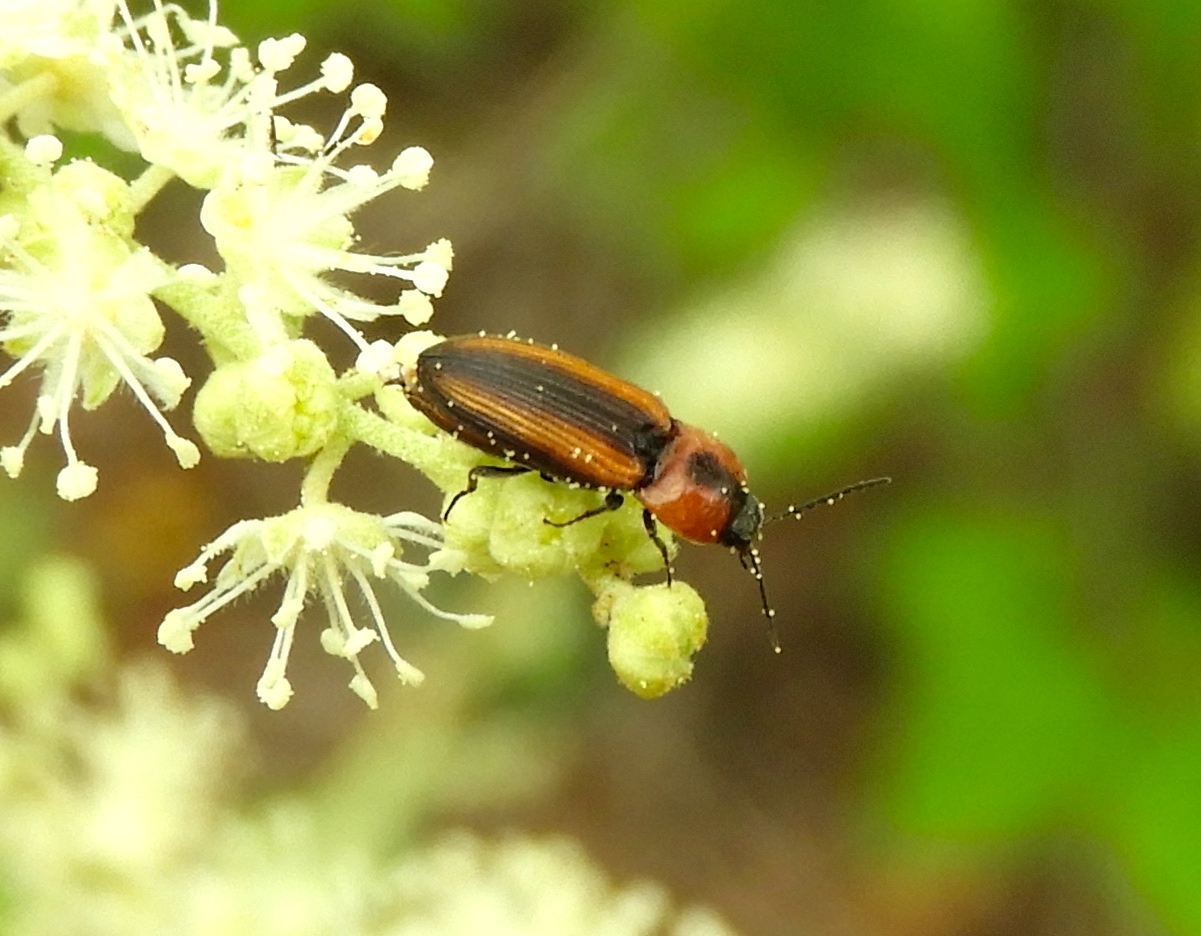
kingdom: Animalia
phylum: Arthropoda
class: Insecta
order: Coleoptera
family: Elateridae
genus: Cardiophorus
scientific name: Cardiophorus aptopoides
